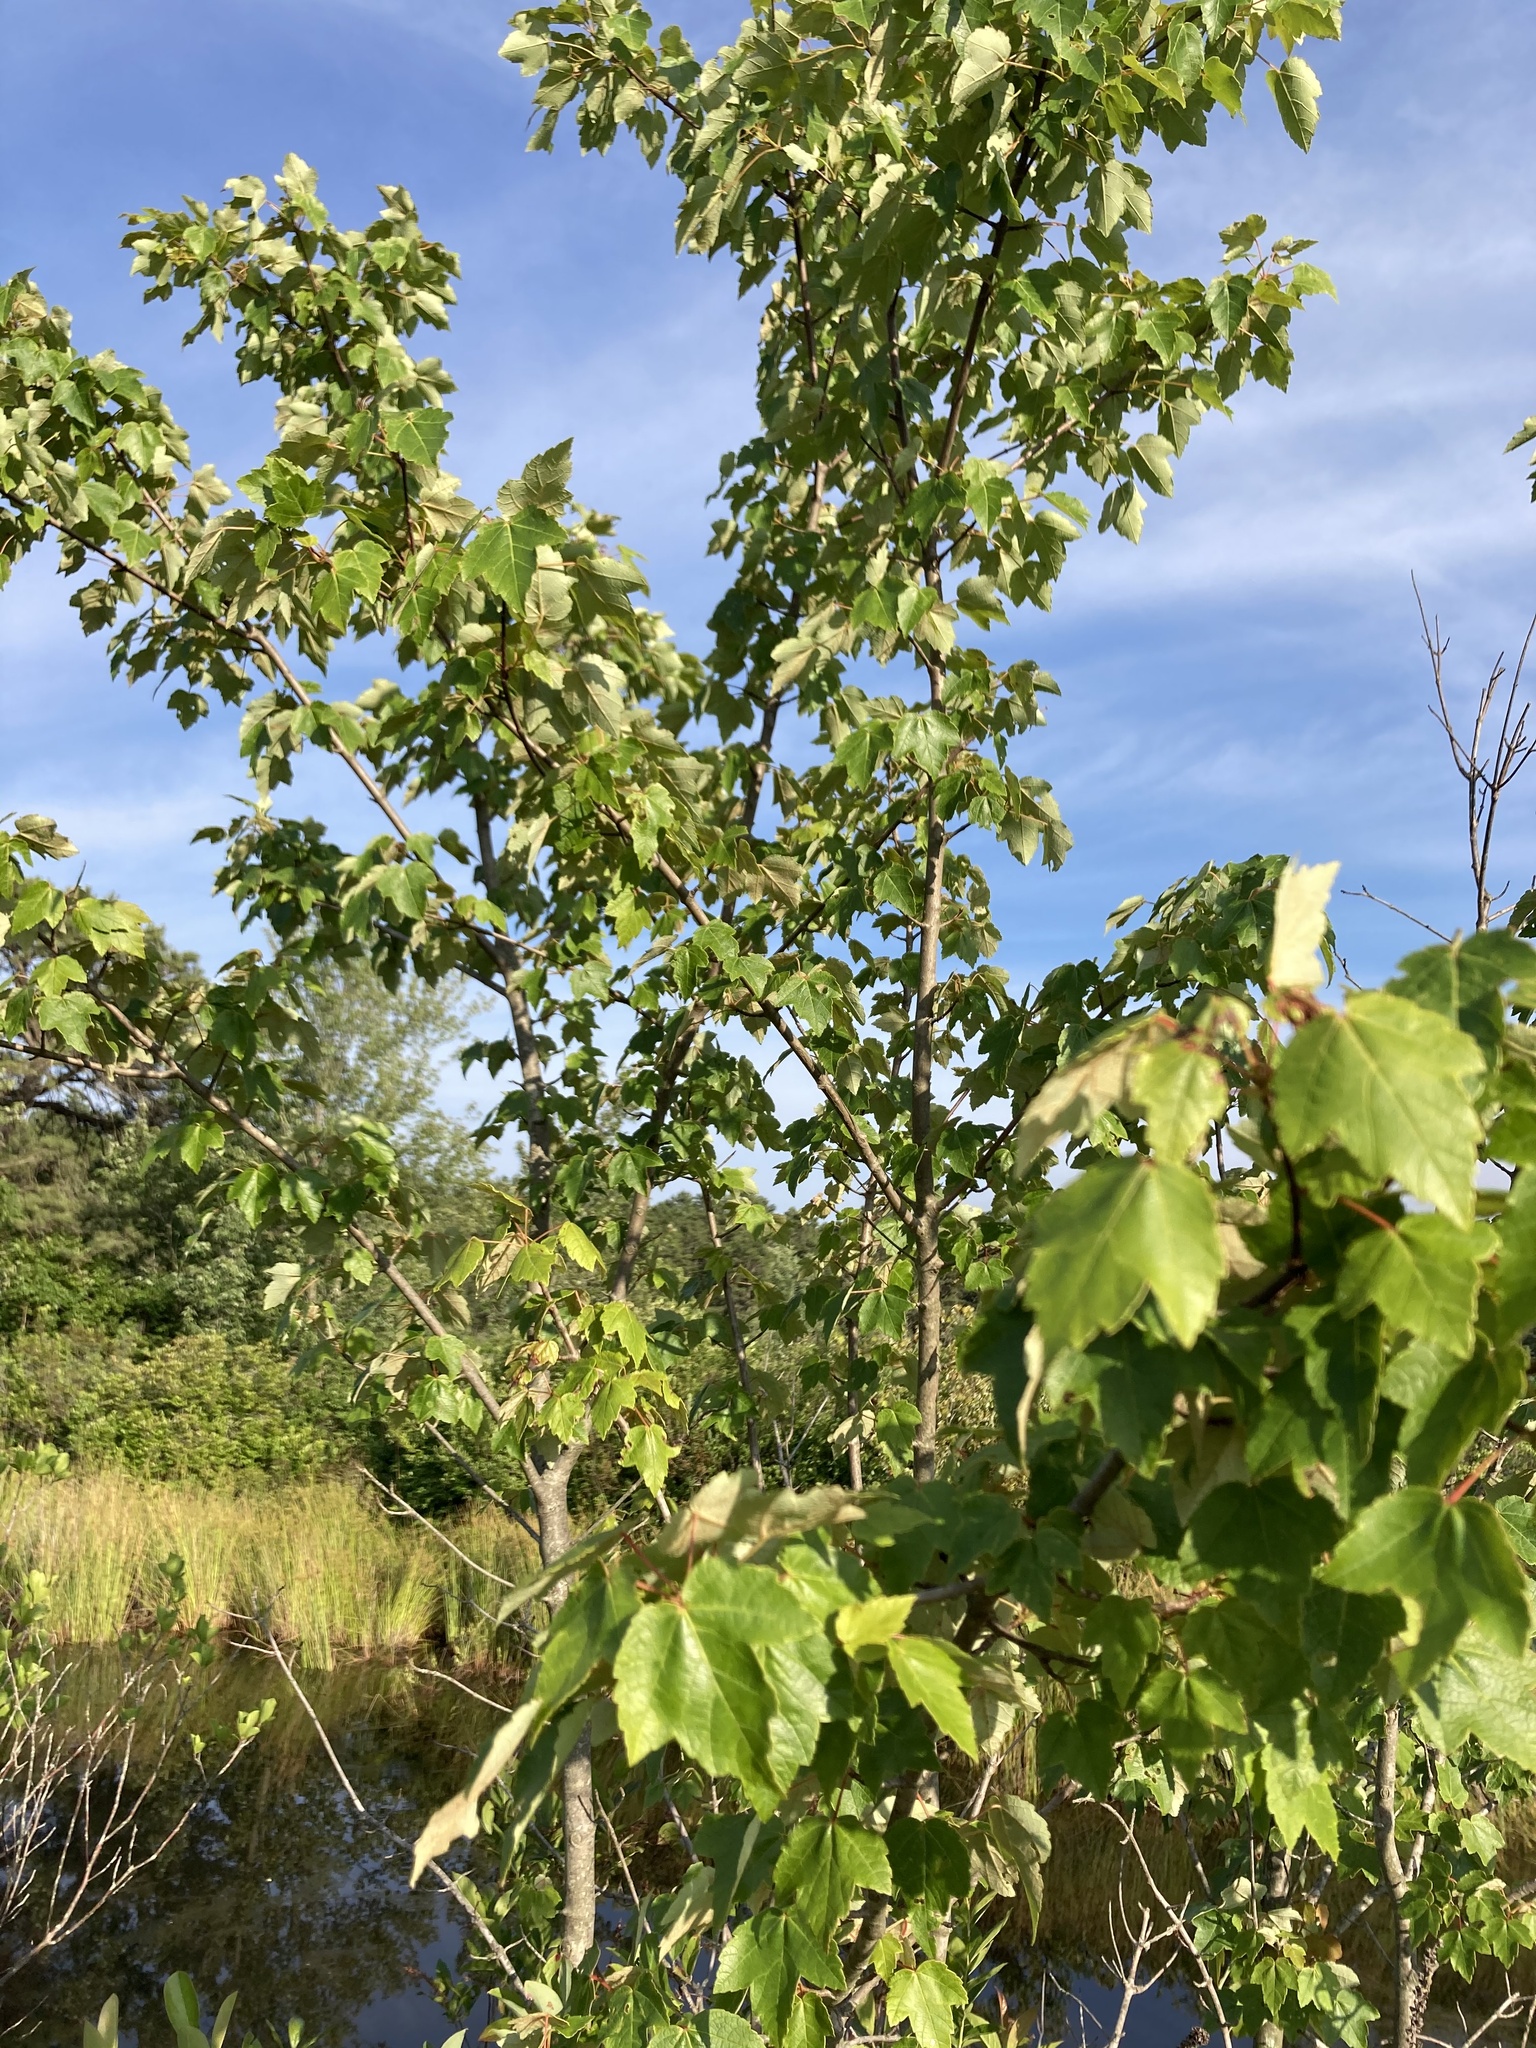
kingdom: Plantae
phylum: Tracheophyta
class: Magnoliopsida
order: Sapindales
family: Sapindaceae
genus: Acer
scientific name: Acer rubrum
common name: Red maple
